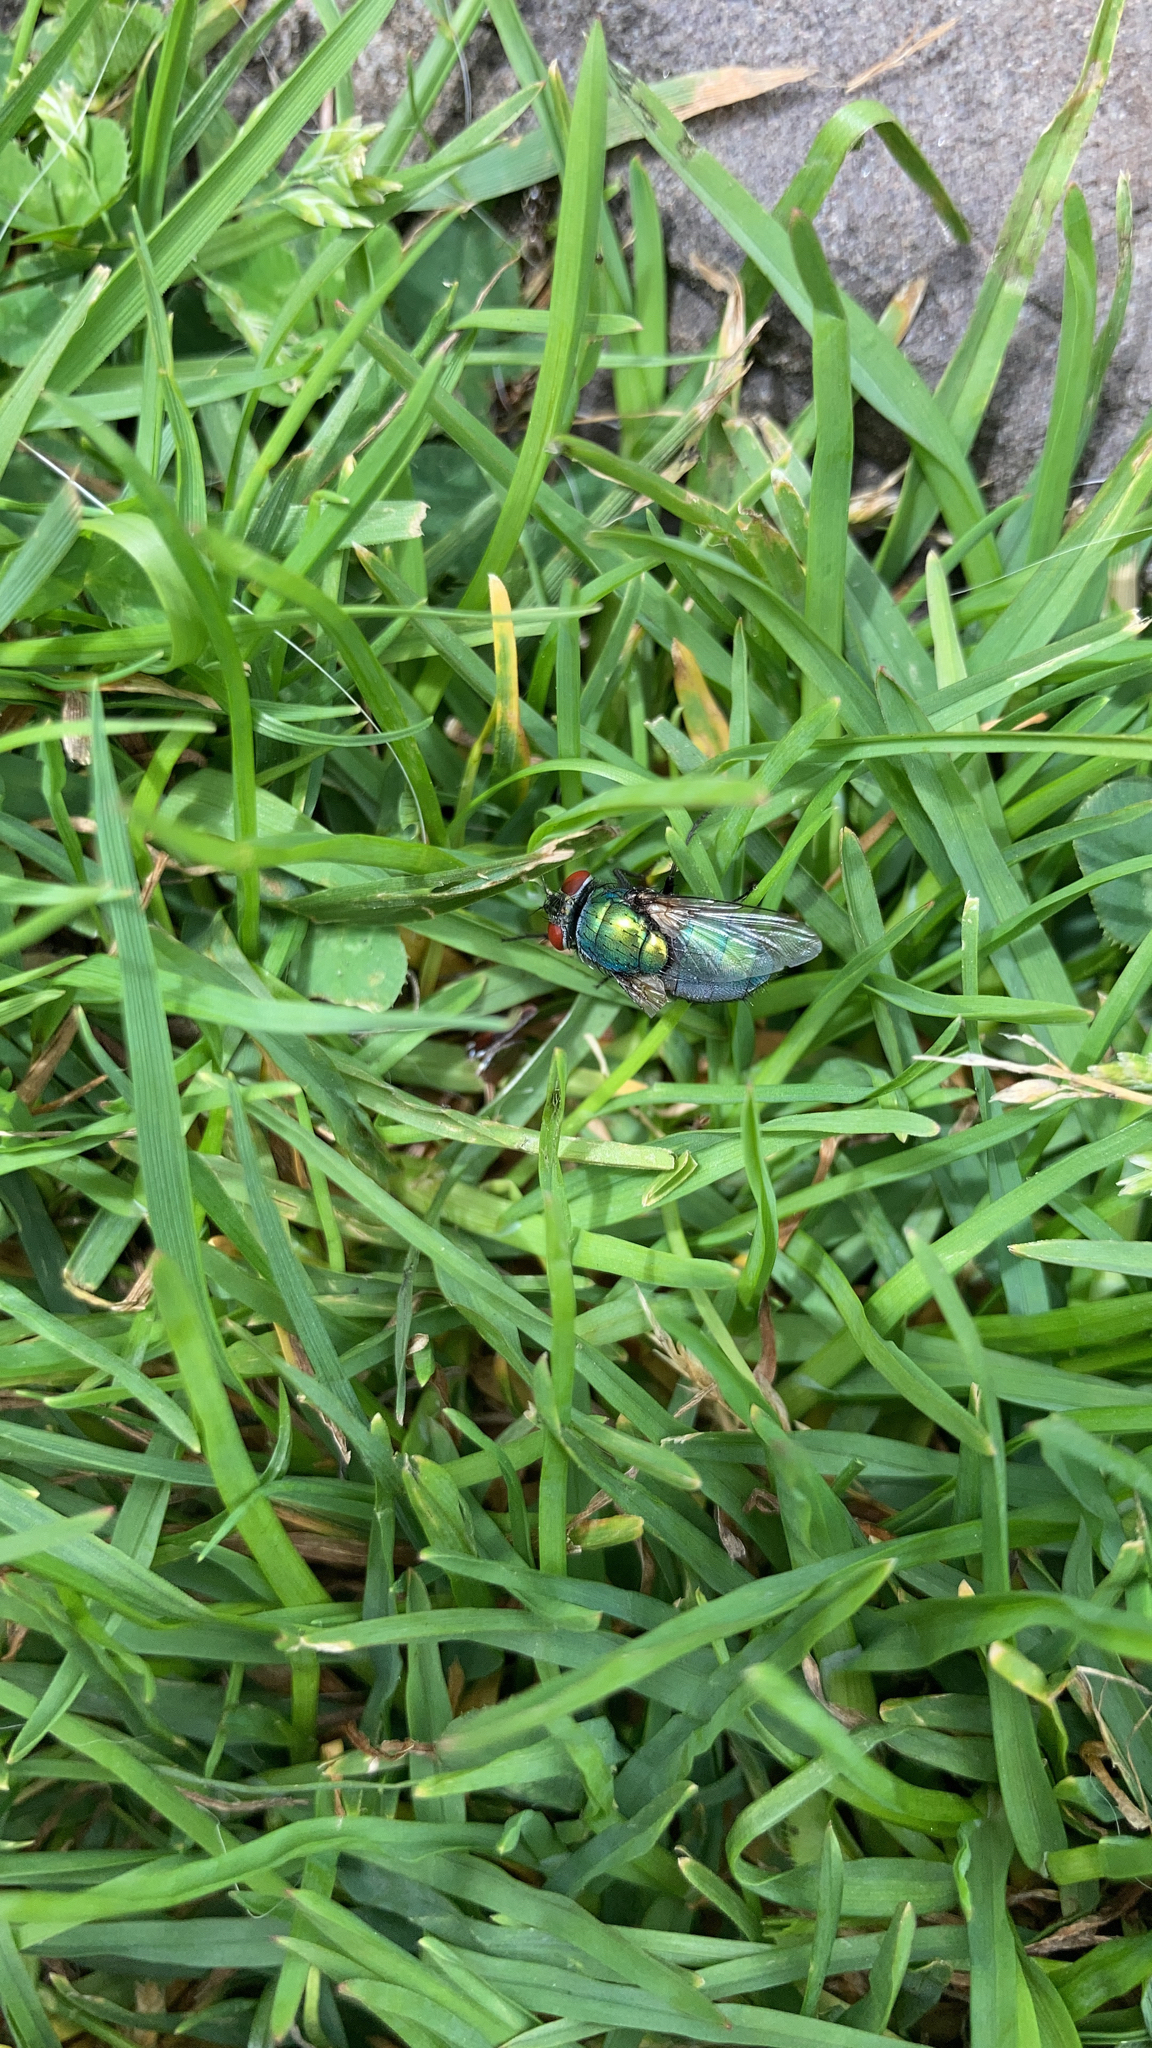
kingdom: Animalia
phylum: Arthropoda
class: Insecta
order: Diptera
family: Calliphoridae
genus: Lucilia
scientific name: Lucilia
